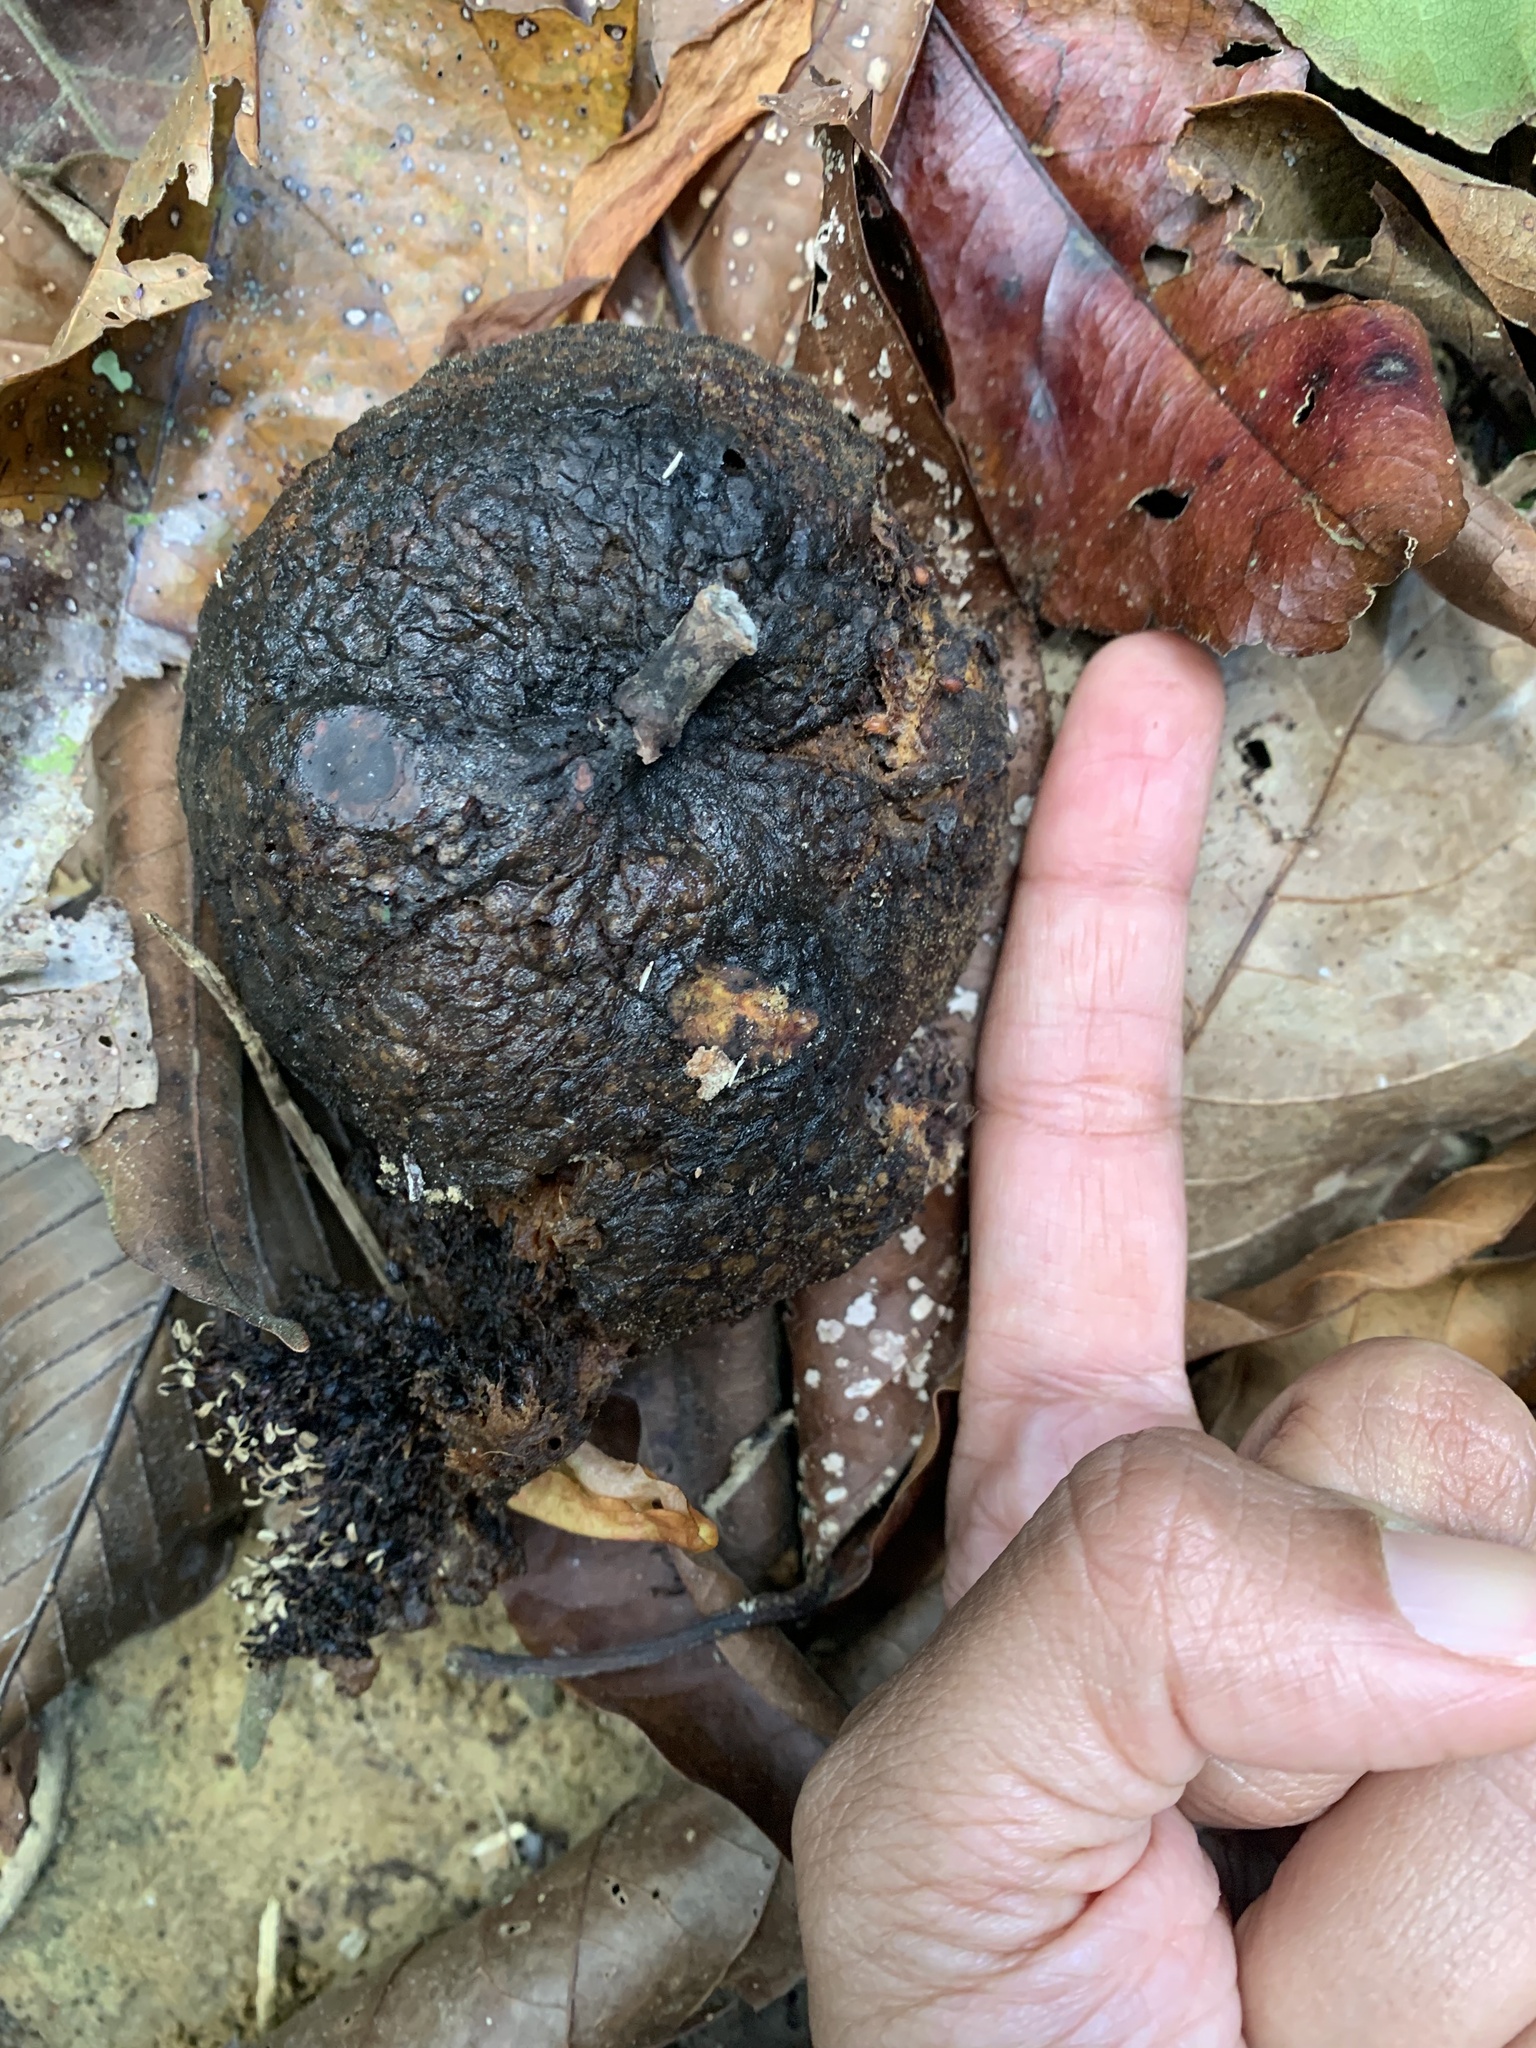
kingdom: Plantae
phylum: Tracheophyta
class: Magnoliopsida
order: Rosales
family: Moraceae
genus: Ficus
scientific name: Ficus punctata
